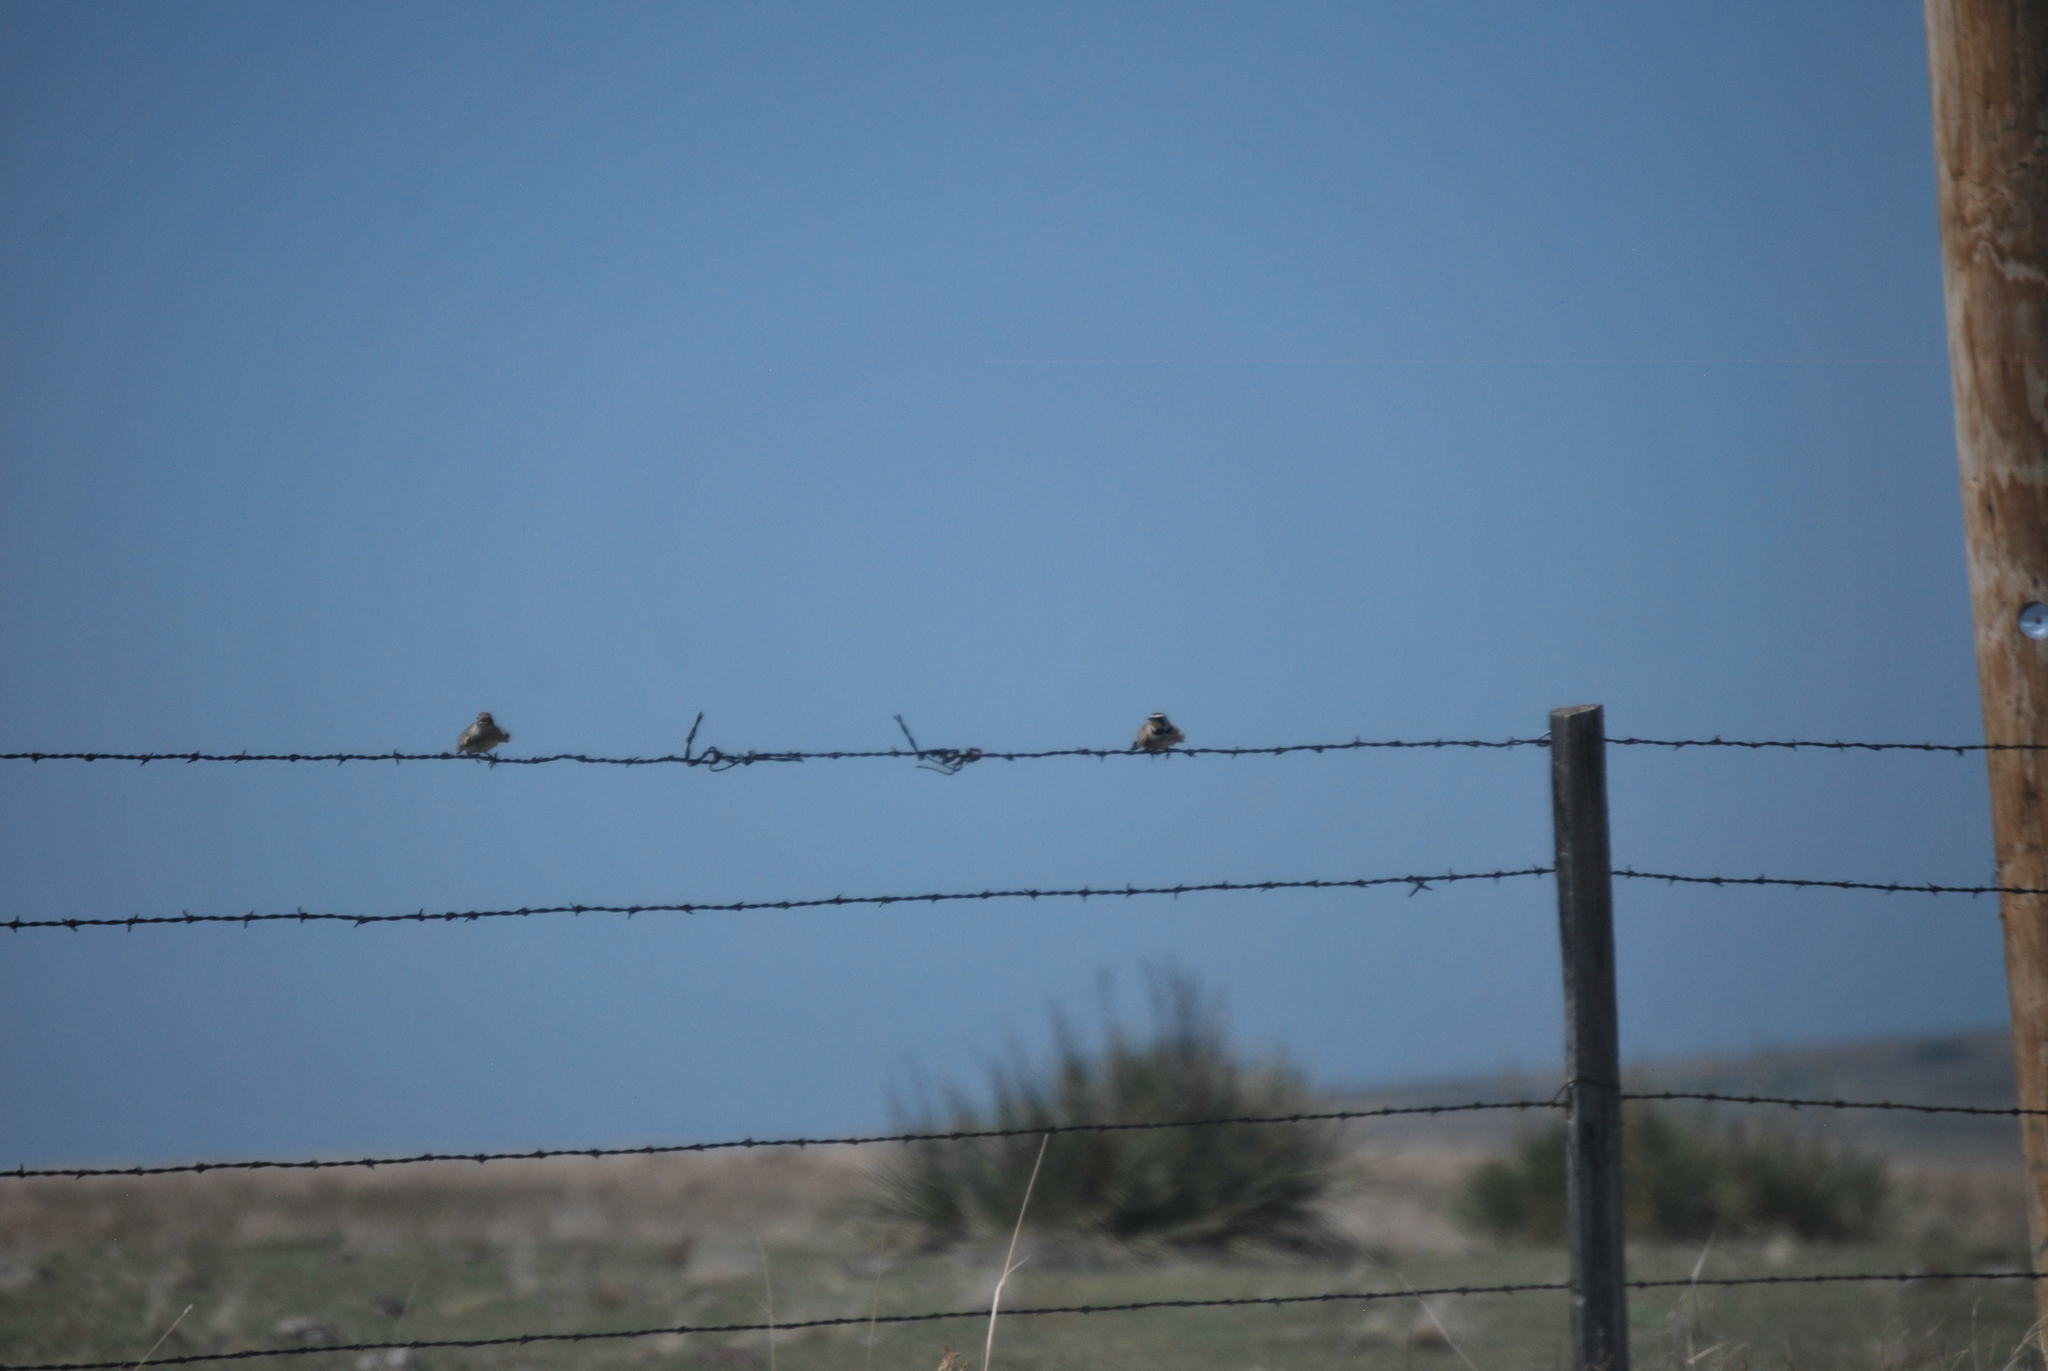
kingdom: Animalia
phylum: Chordata
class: Aves
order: Passeriformes
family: Alaudidae
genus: Eremophila
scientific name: Eremophila alpestris
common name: Horned lark
